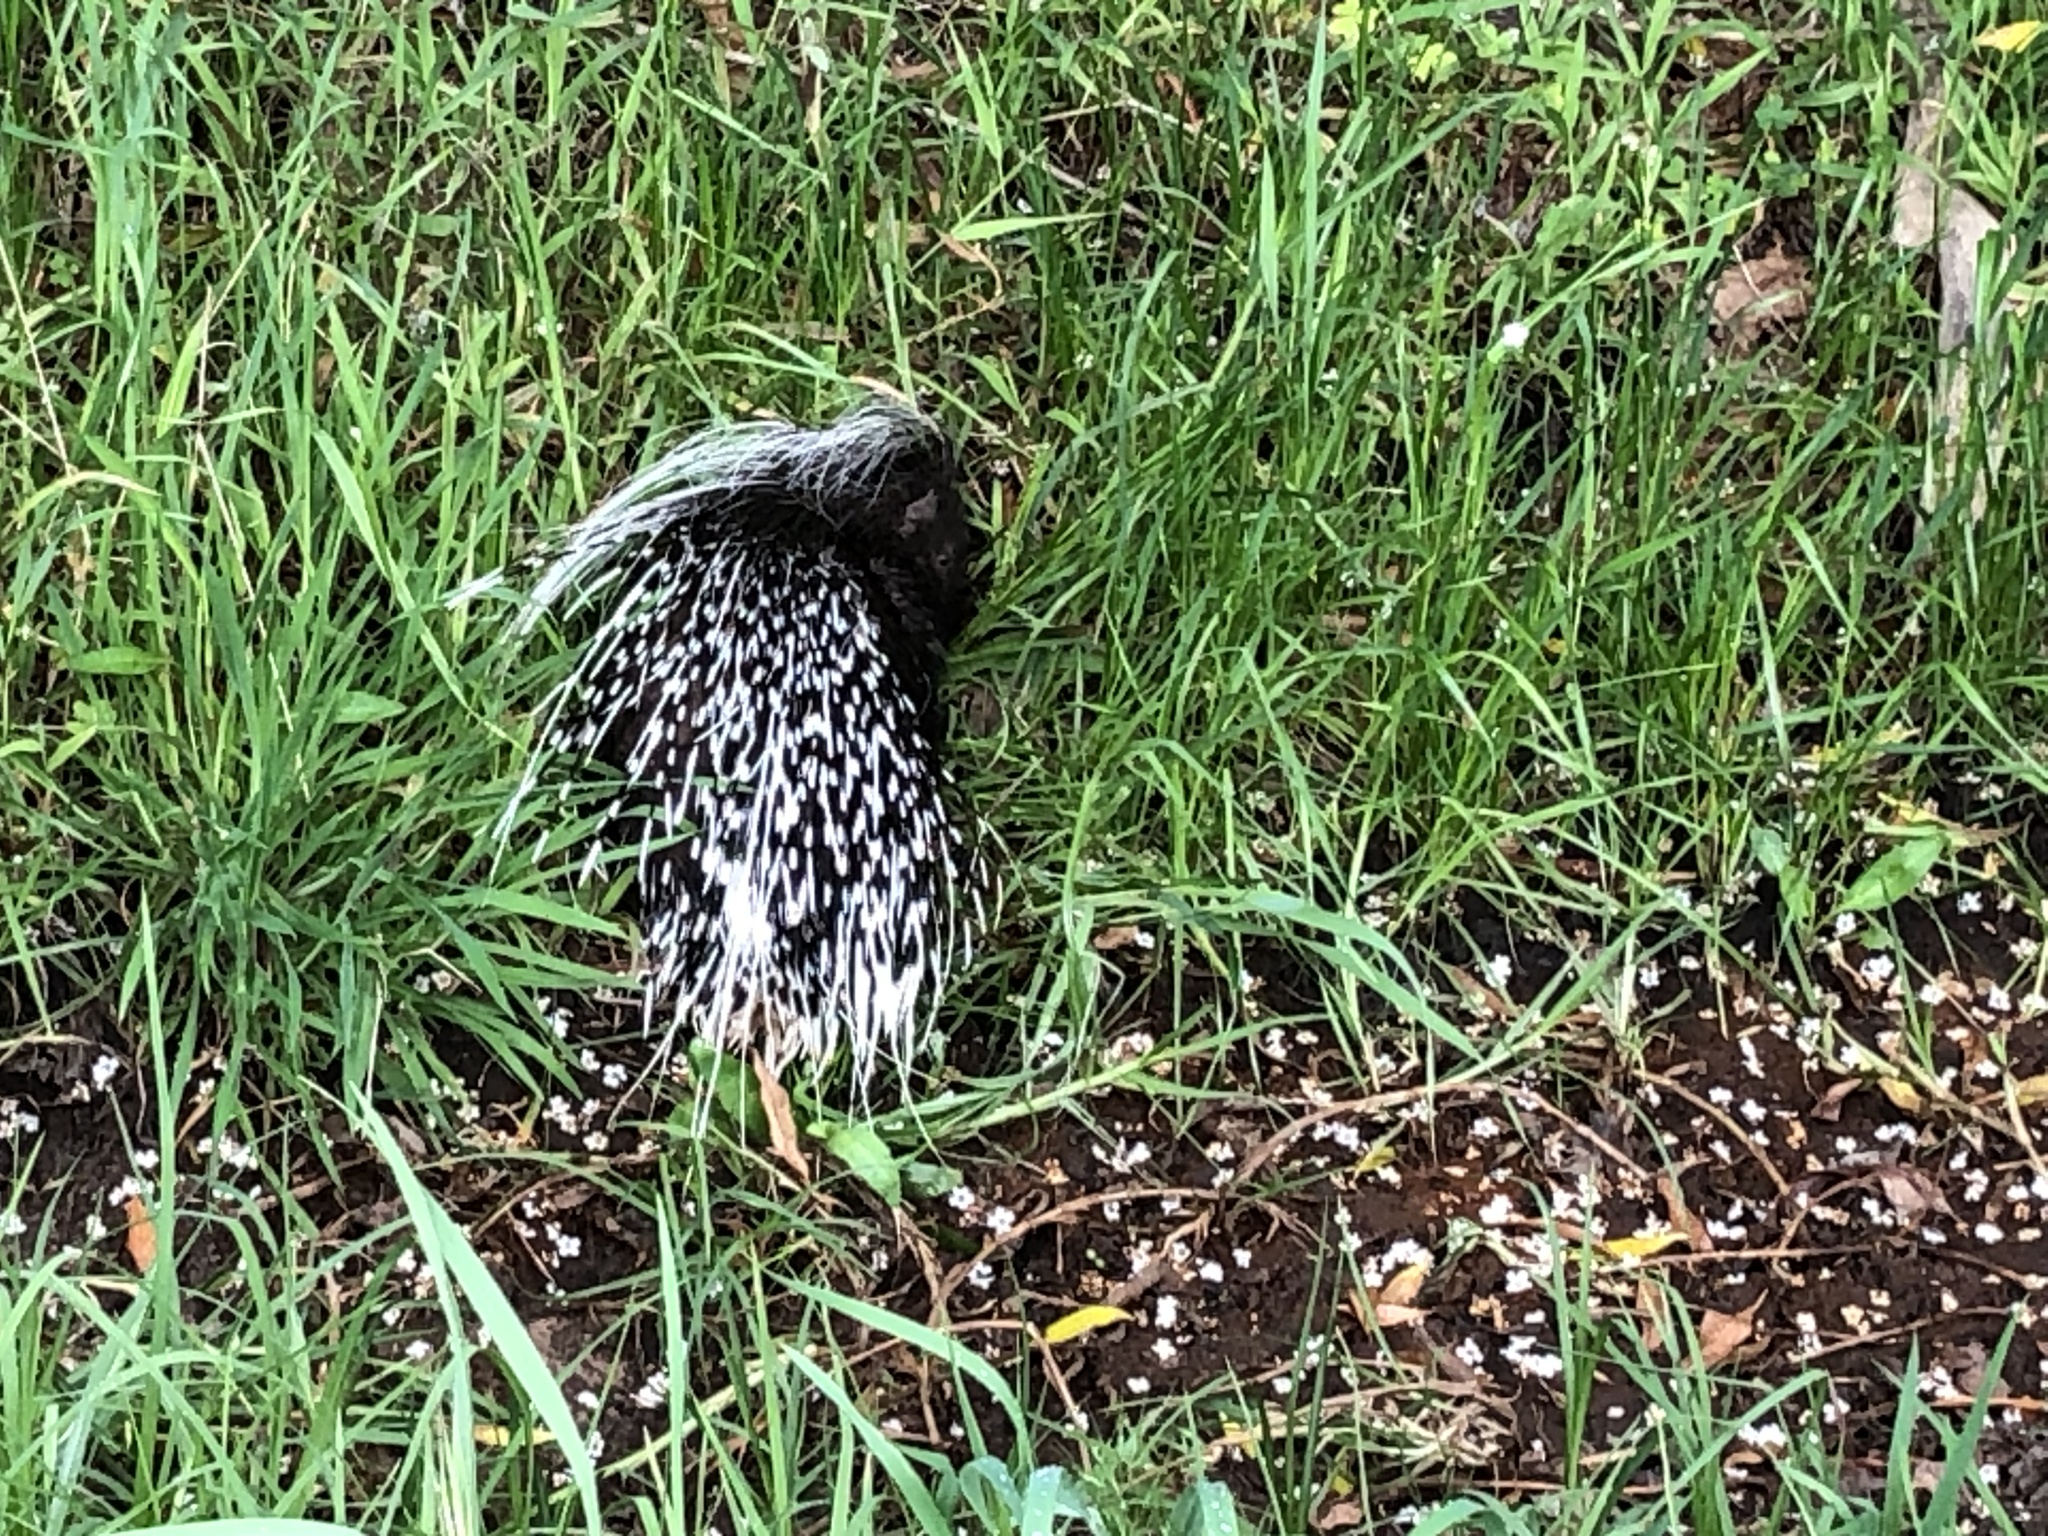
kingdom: Animalia
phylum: Chordata
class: Mammalia
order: Rodentia
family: Hystricidae
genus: Hystrix
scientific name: Hystrix africaeaustralis
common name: Cape porcupine
